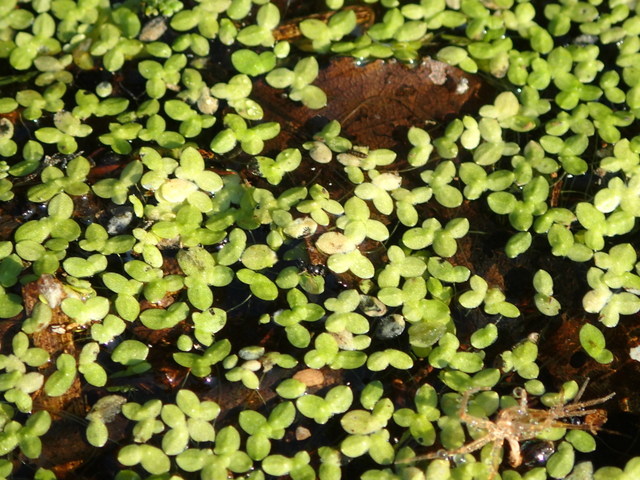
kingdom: Plantae
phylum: Tracheophyta
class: Liliopsida
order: Alismatales
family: Araceae
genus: Lemna
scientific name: Lemna minor
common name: Common duckweed
